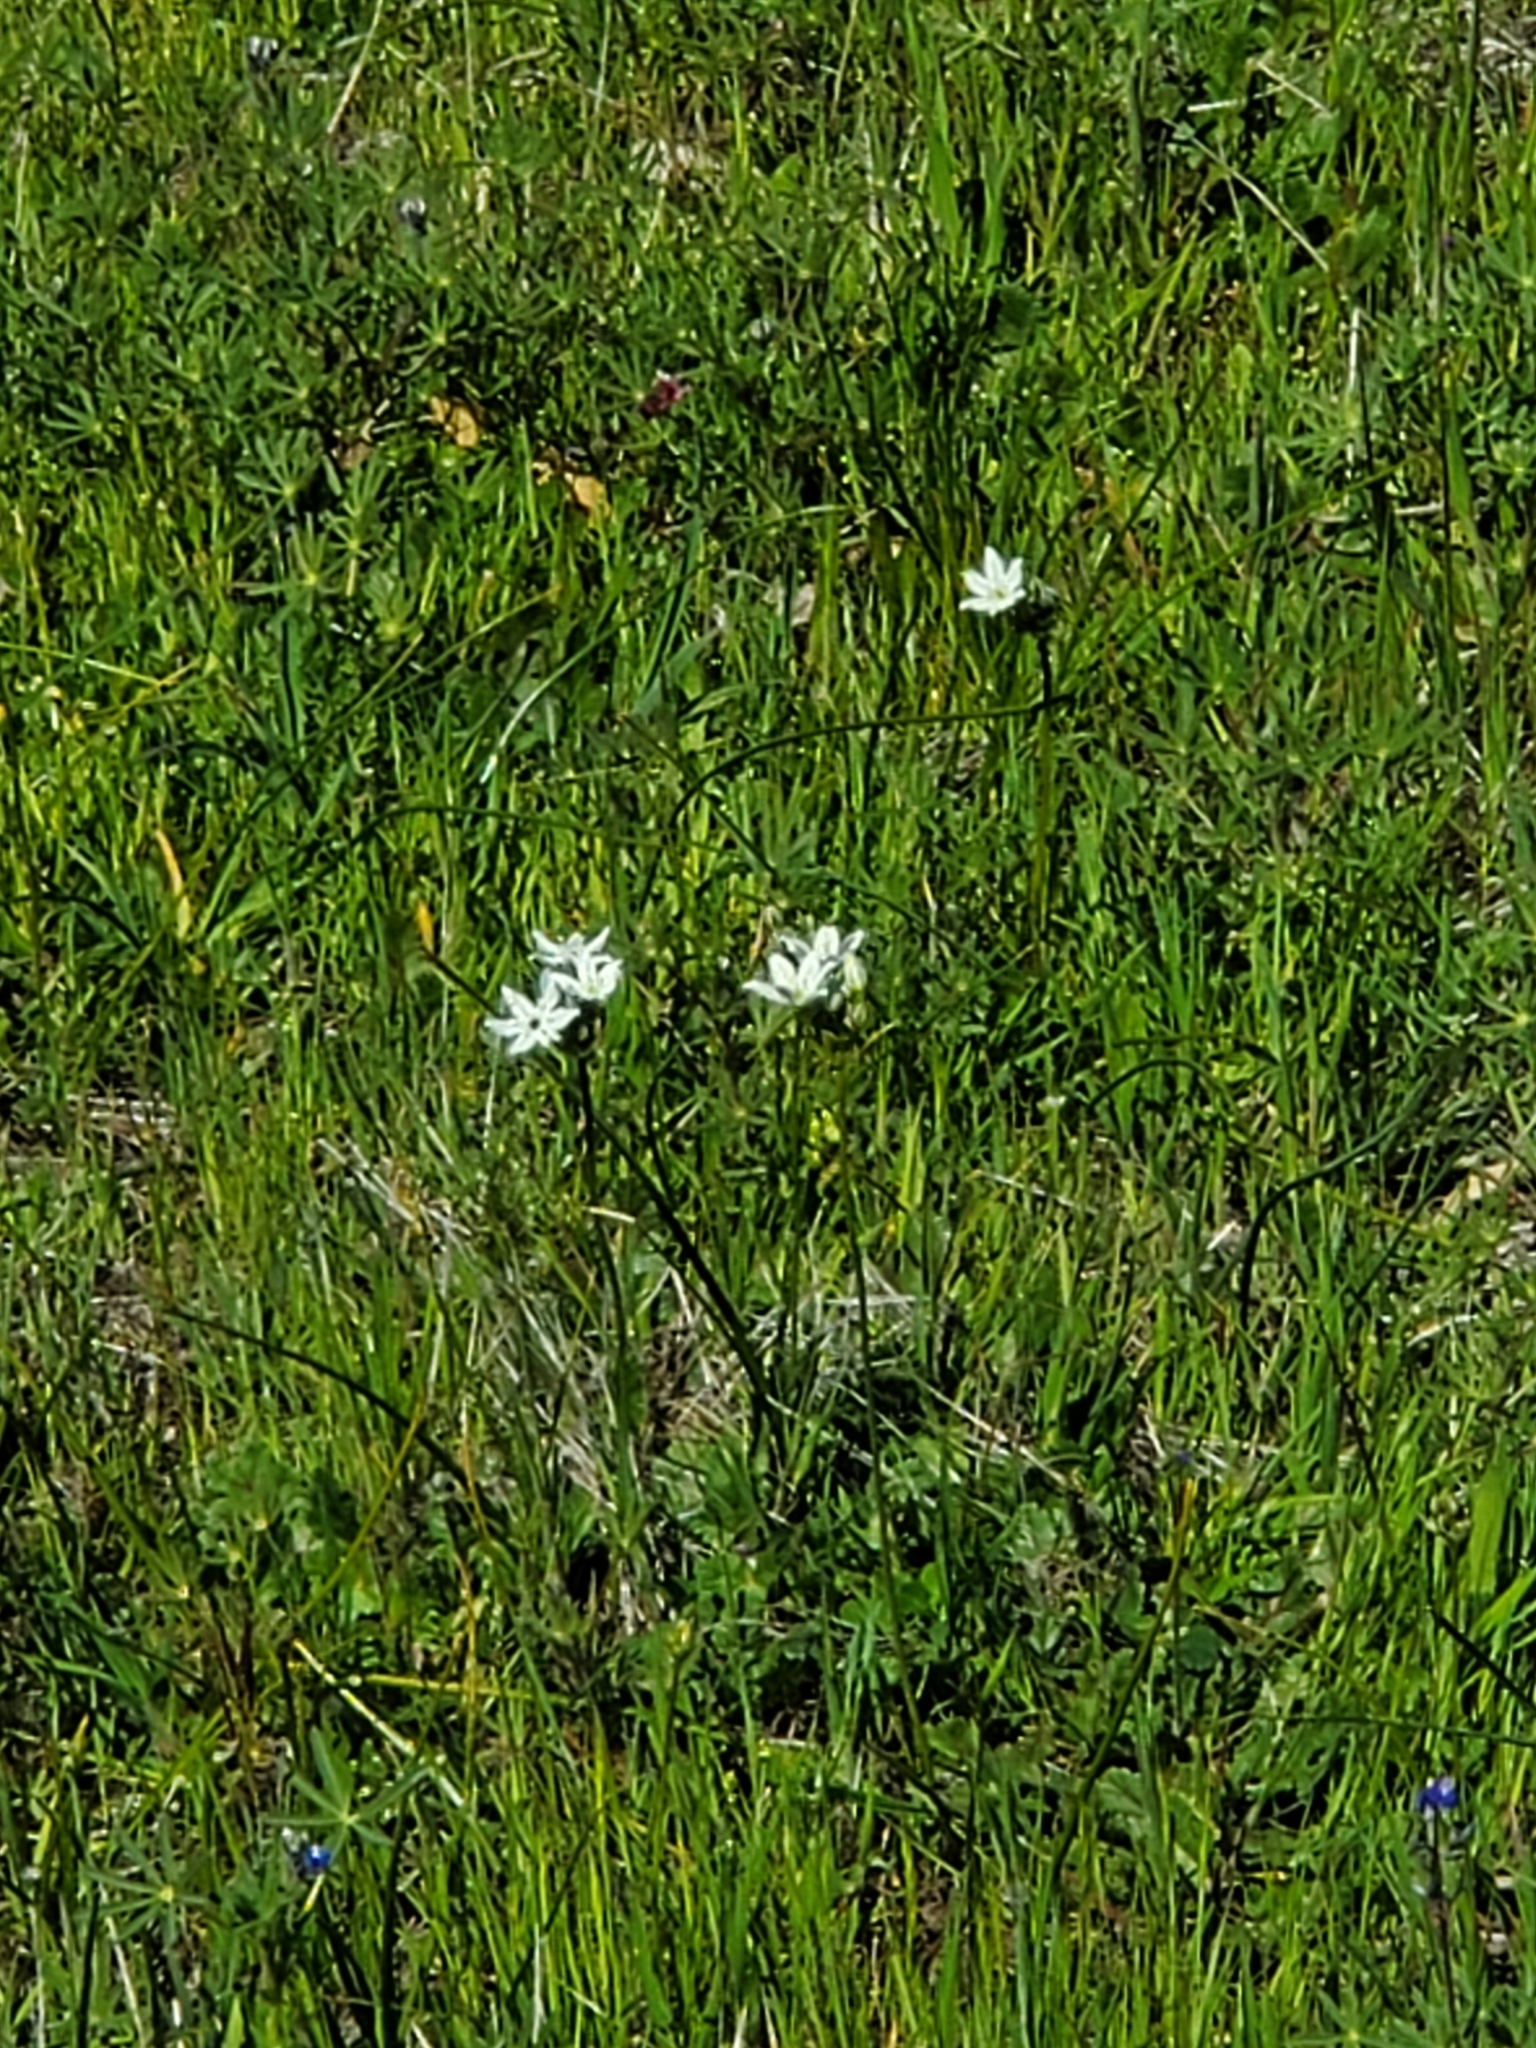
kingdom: Plantae
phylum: Tracheophyta
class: Liliopsida
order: Asparagales
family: Asparagaceae
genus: Triteleia
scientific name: Triteleia hyacinthina
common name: White brodiaea
